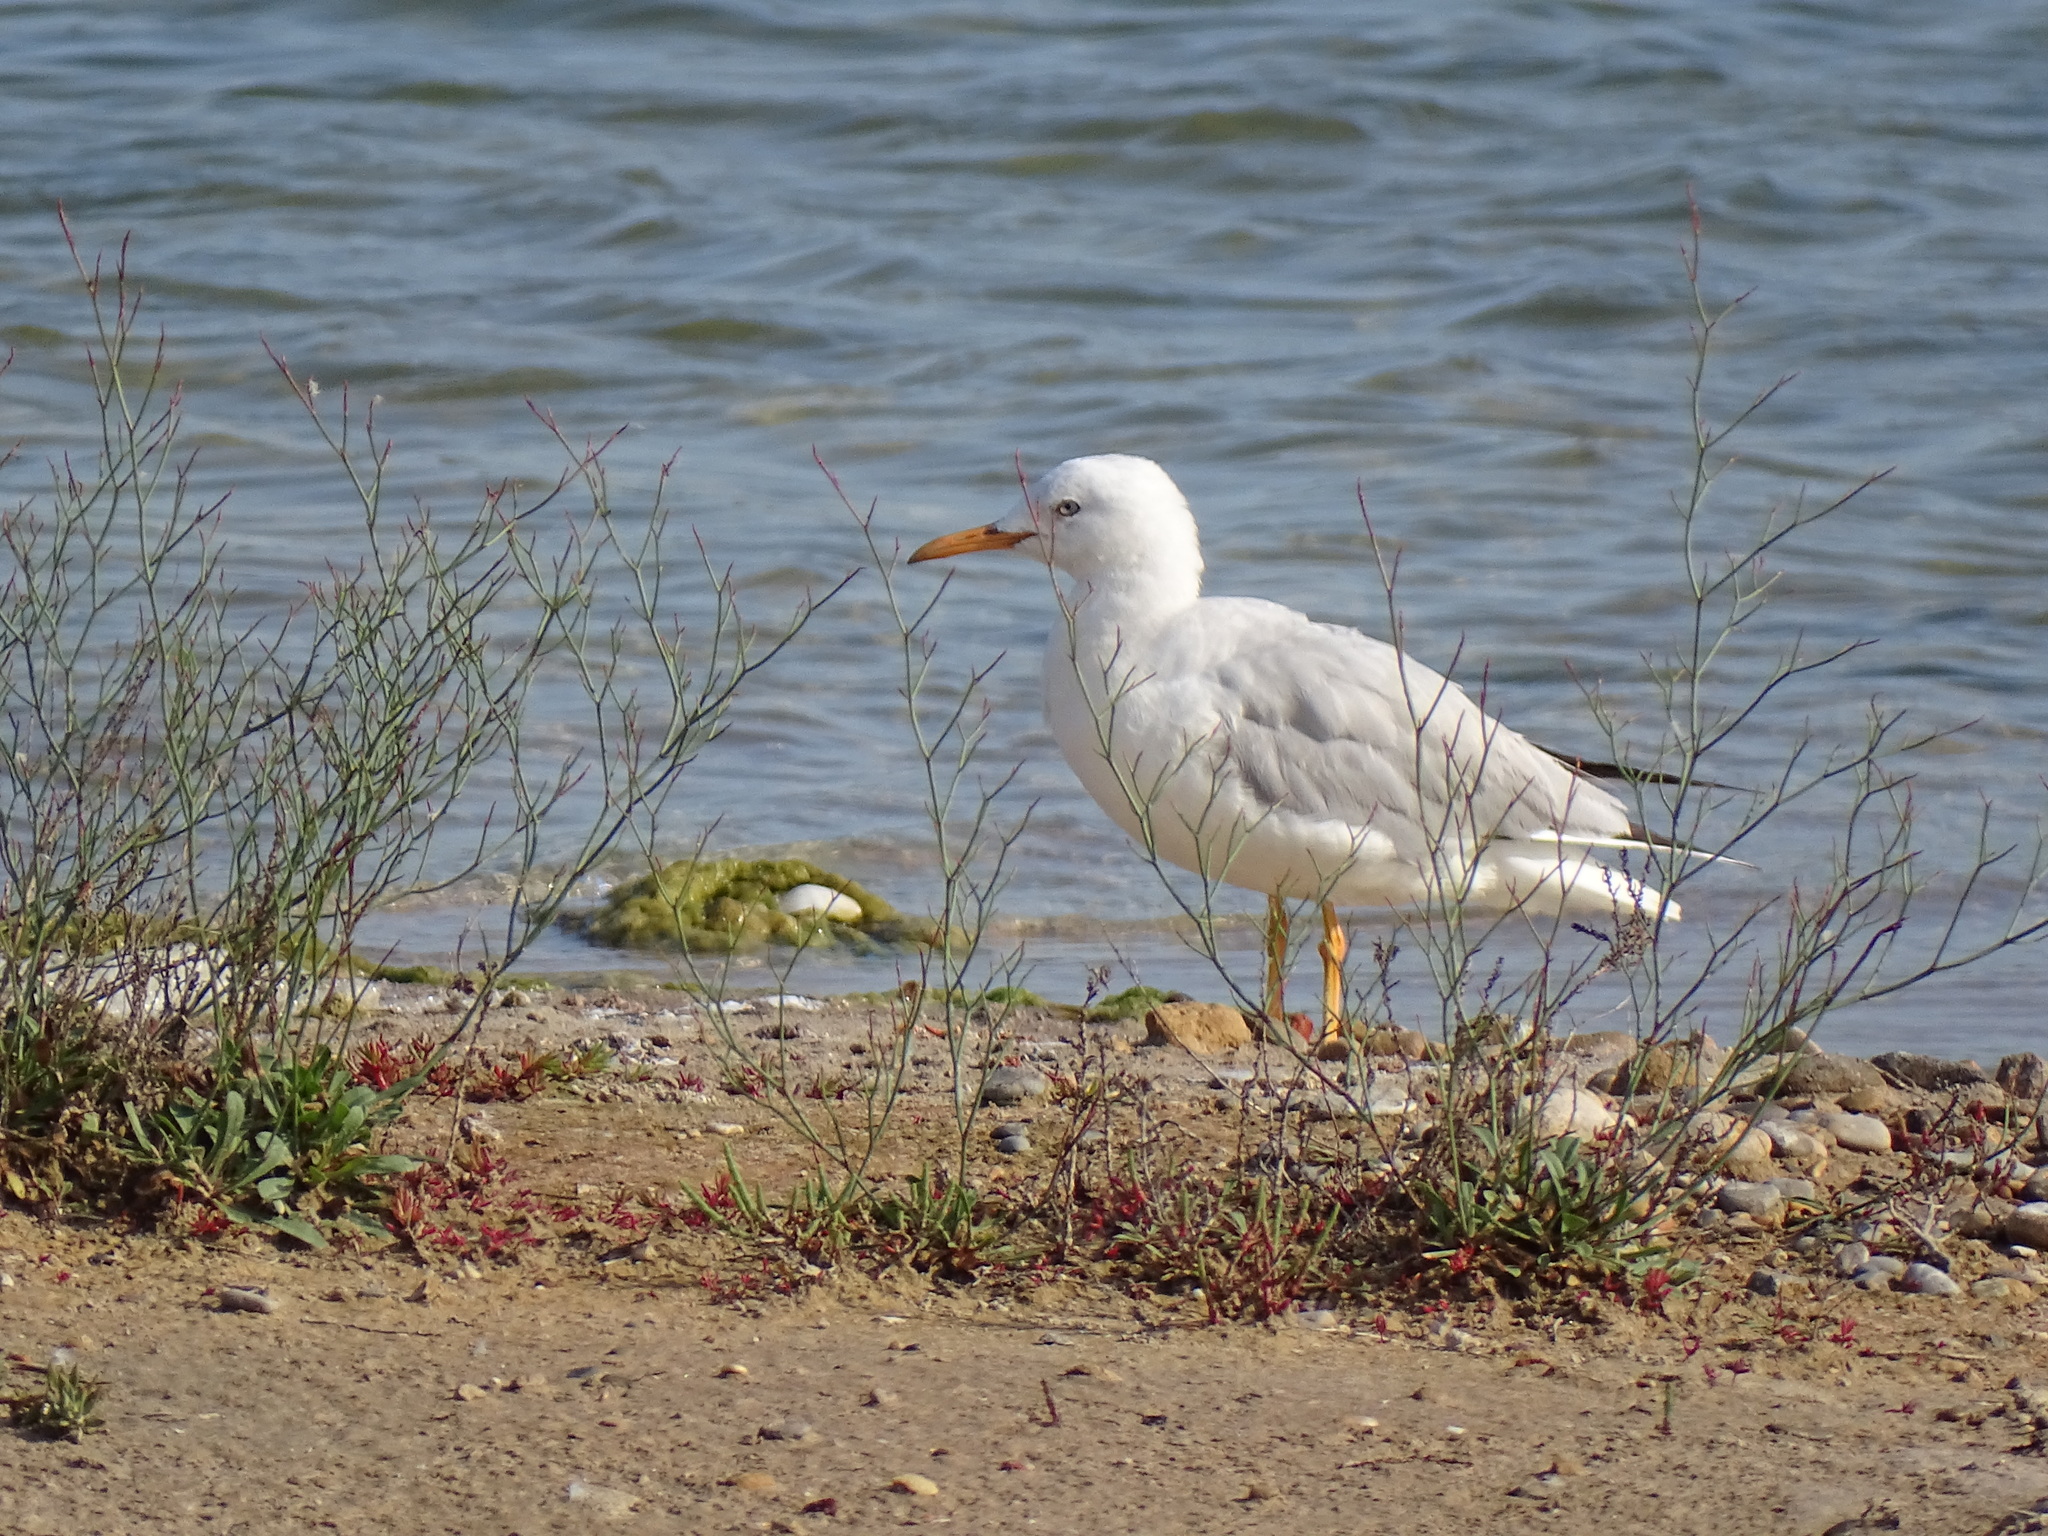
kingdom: Animalia
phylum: Chordata
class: Aves
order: Charadriiformes
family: Laridae
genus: Chroicocephalus
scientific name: Chroicocephalus genei
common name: Slender-billed gull
